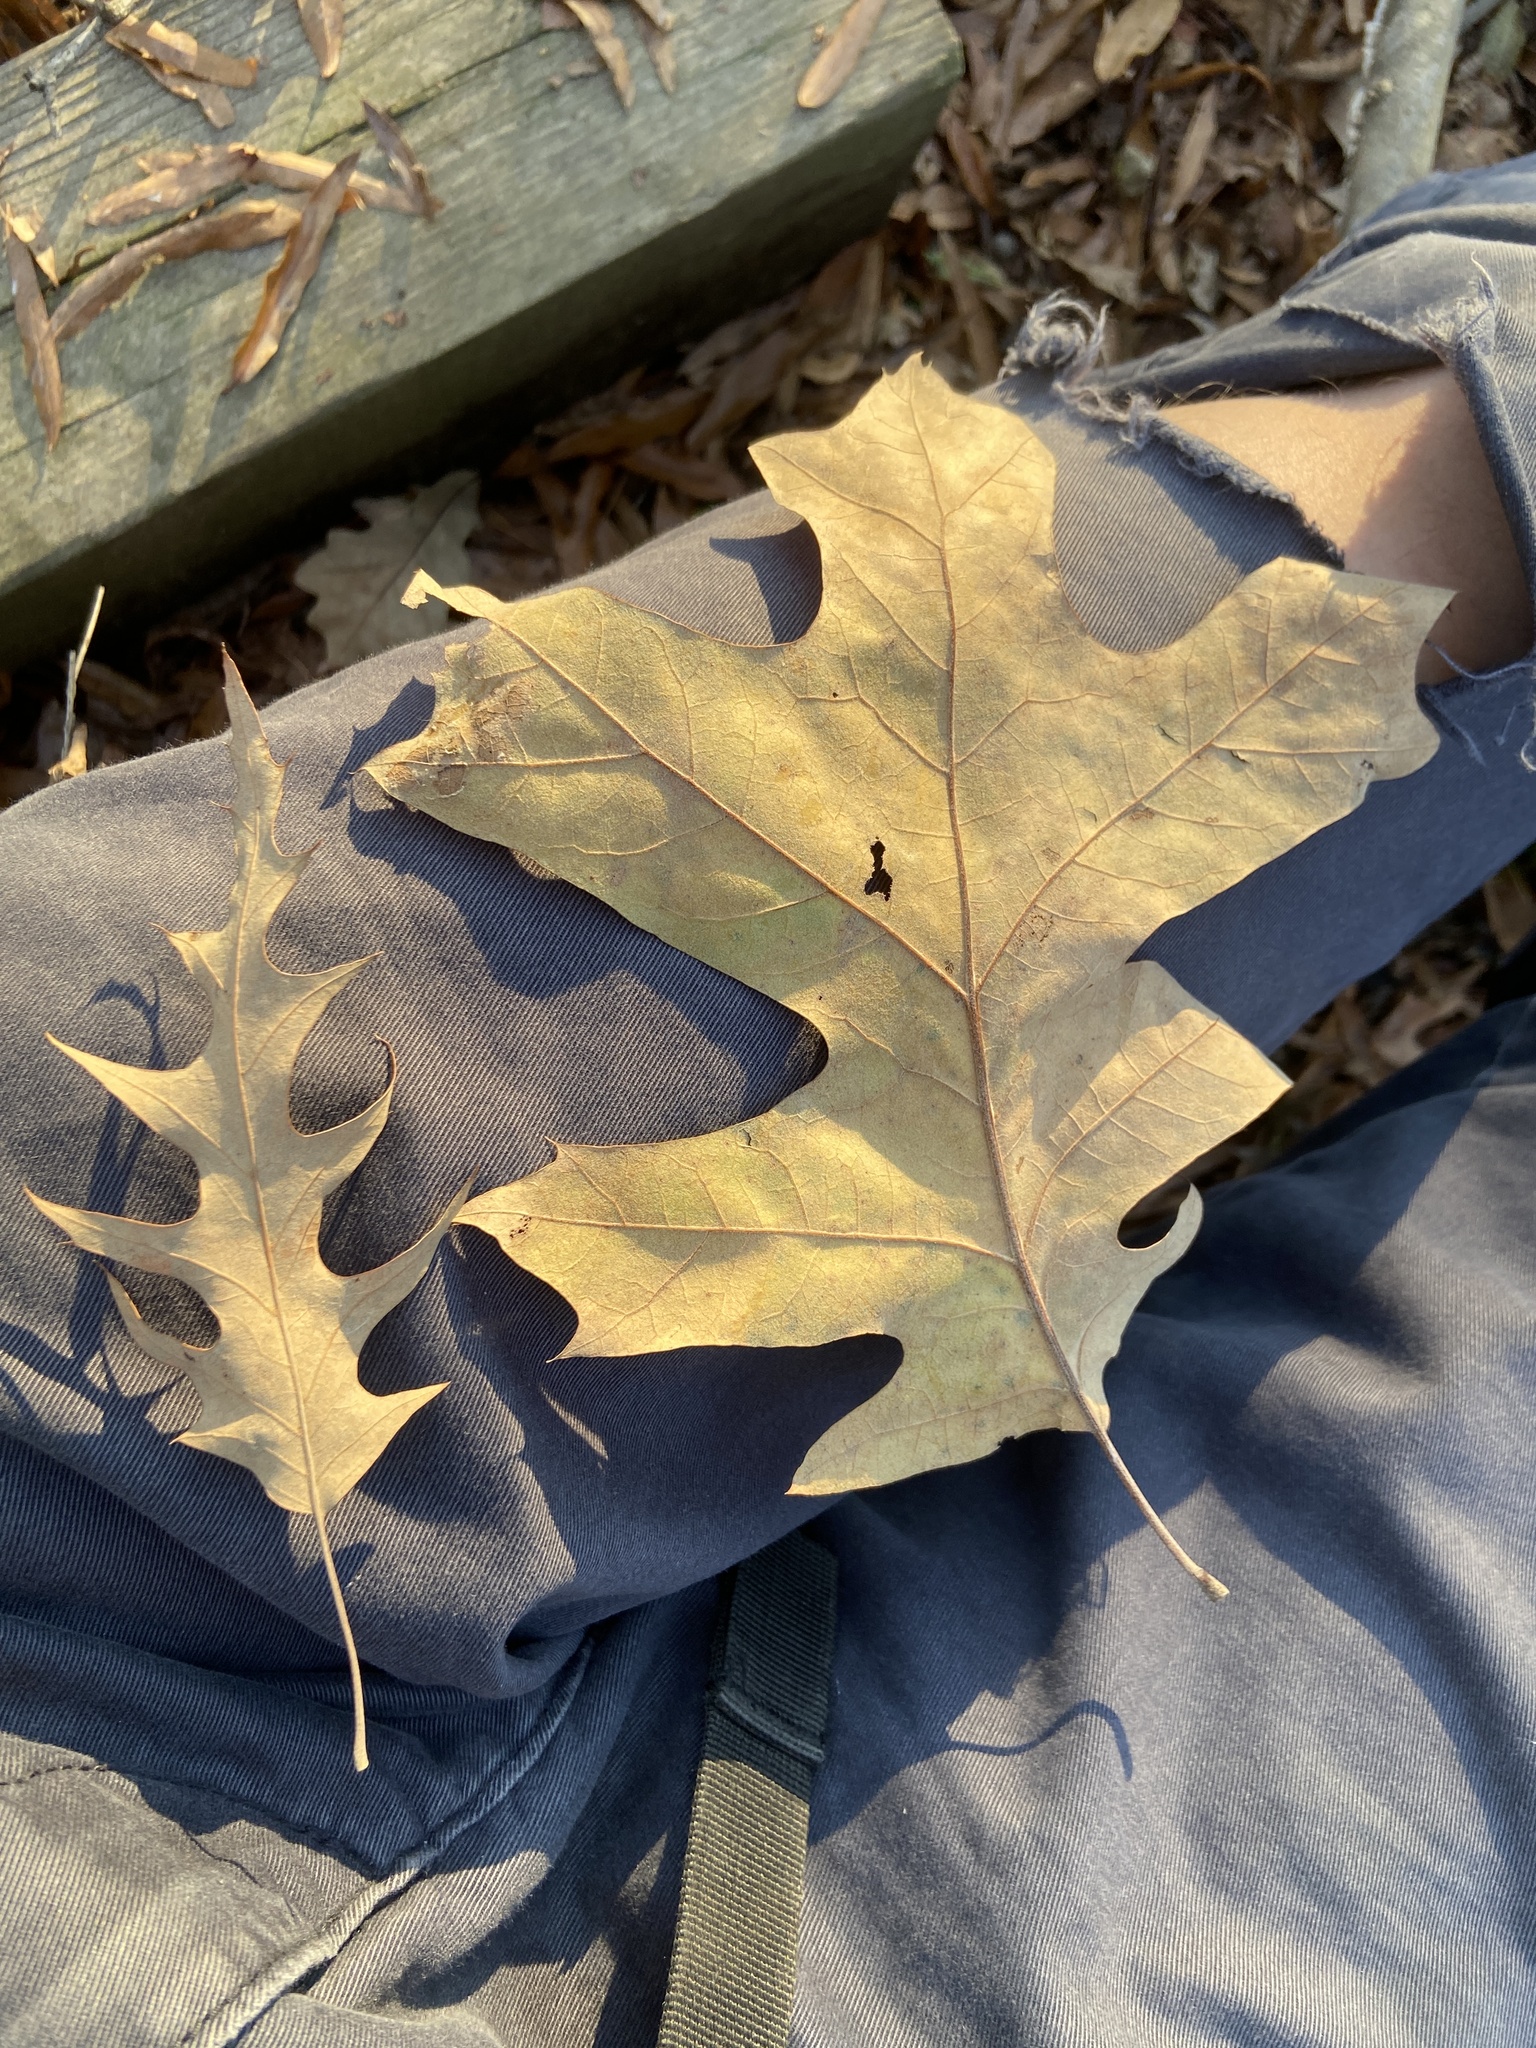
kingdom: Plantae
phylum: Tracheophyta
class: Magnoliopsida
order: Fagales
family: Fagaceae
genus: Quercus
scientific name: Quercus pagoda
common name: Cherrybark oak
